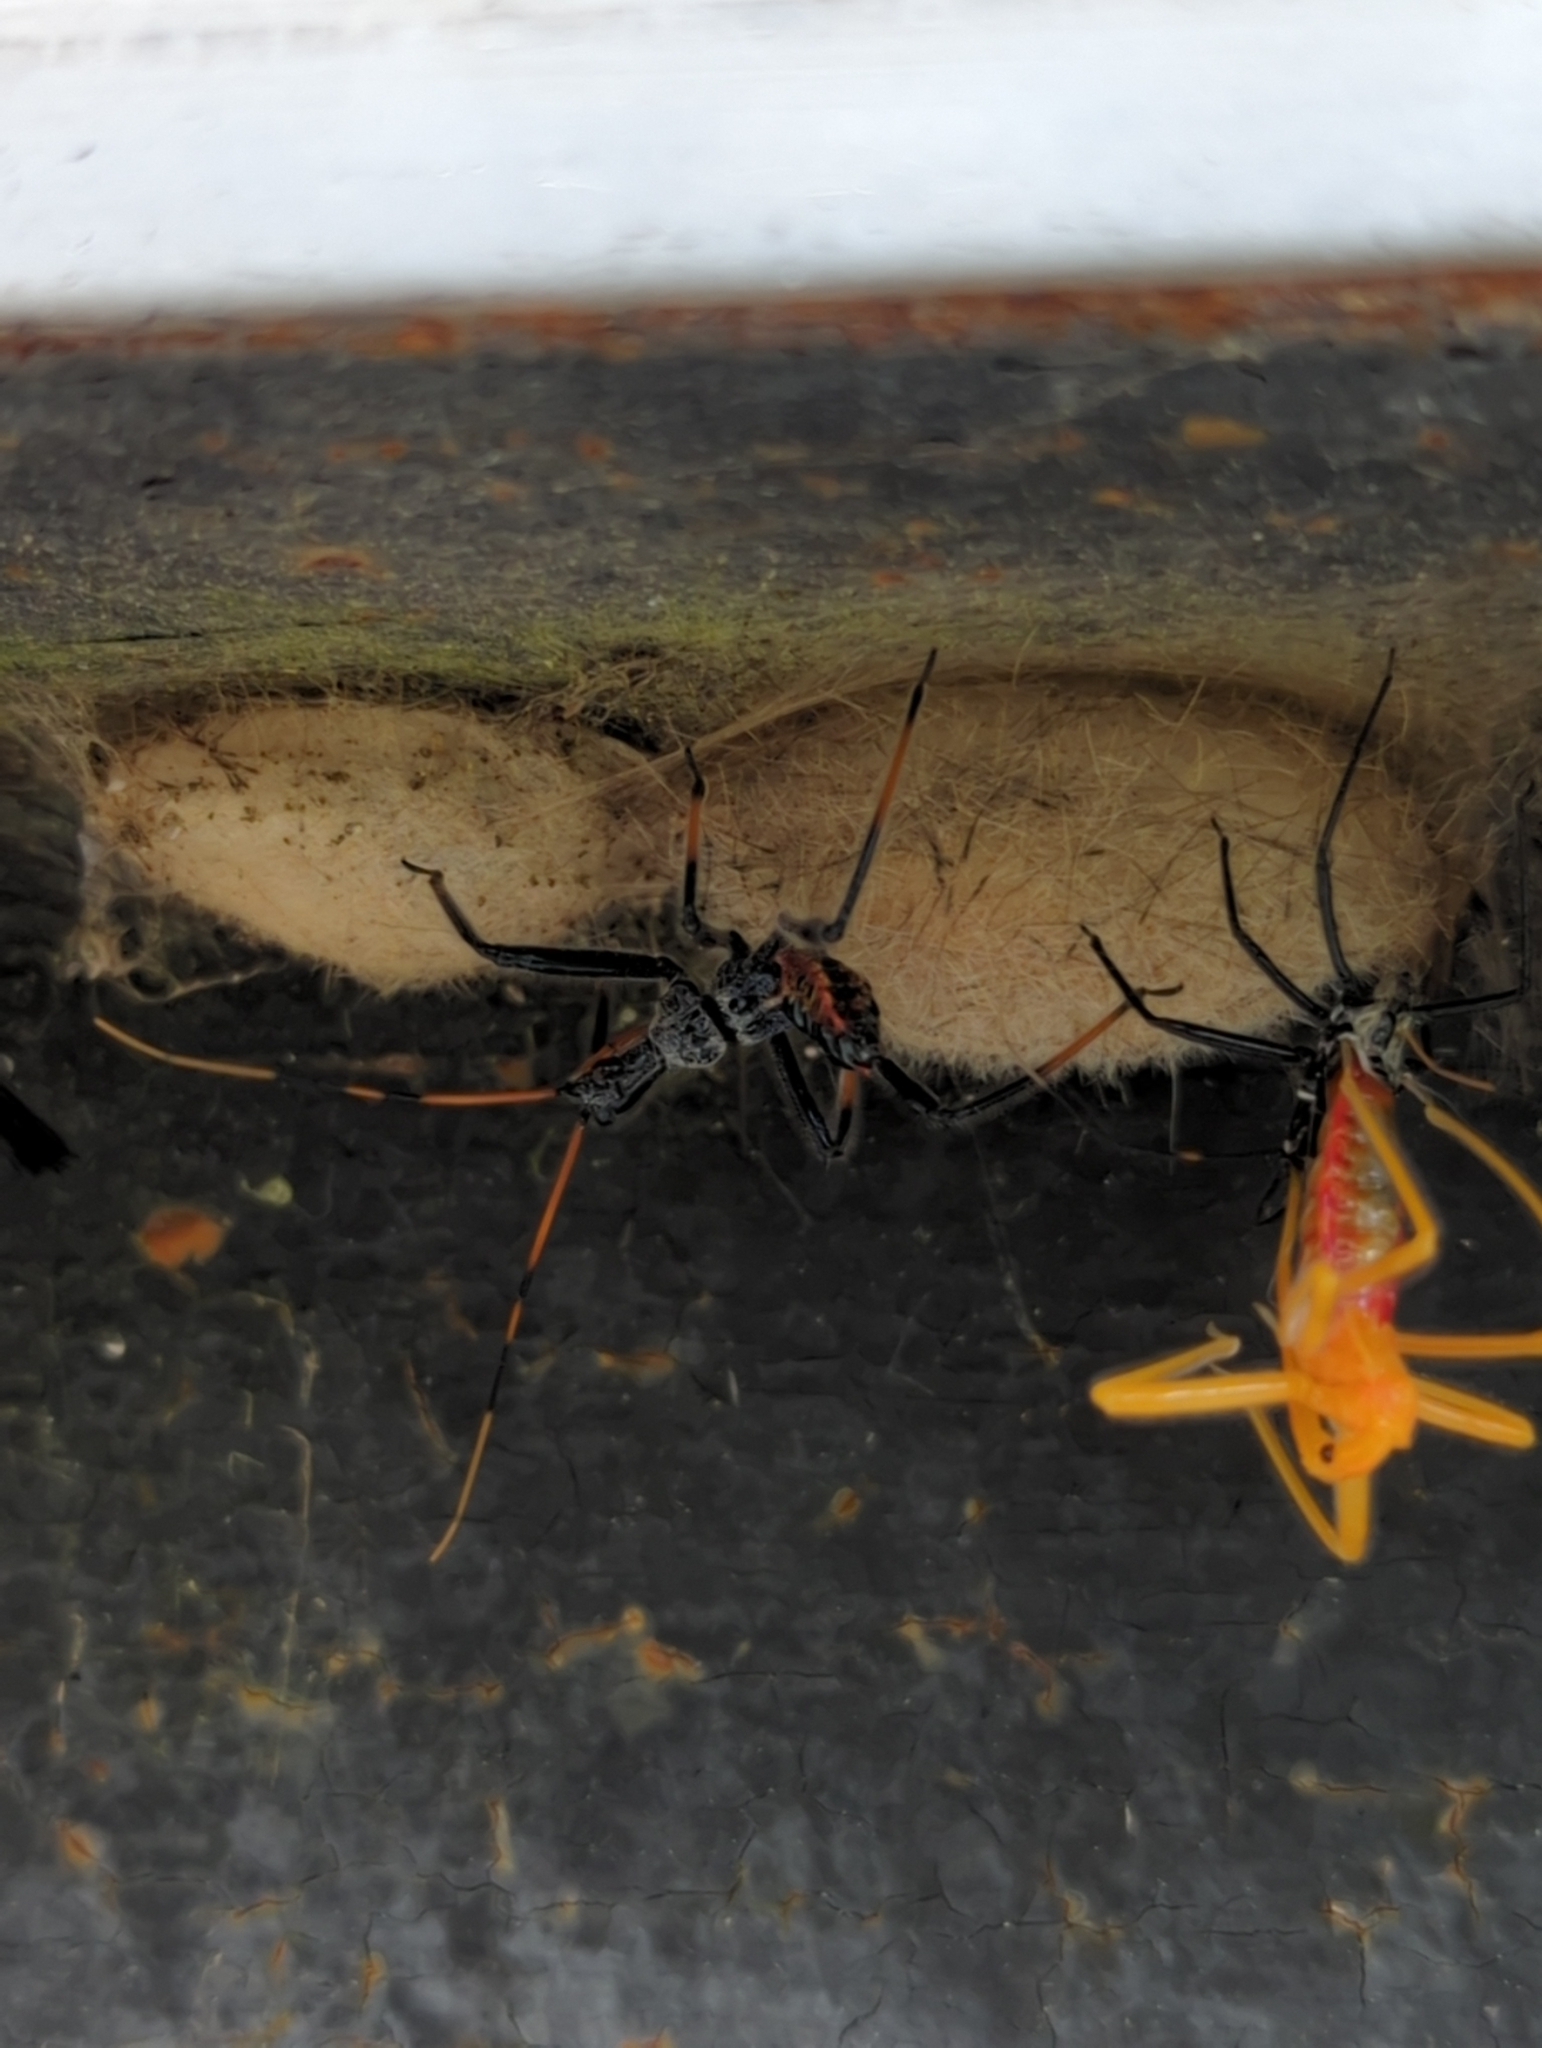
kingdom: Animalia
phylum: Arthropoda
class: Insecta
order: Hemiptera
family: Reduviidae
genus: Arilus
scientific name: Arilus cristatus
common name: North american wheel bug
